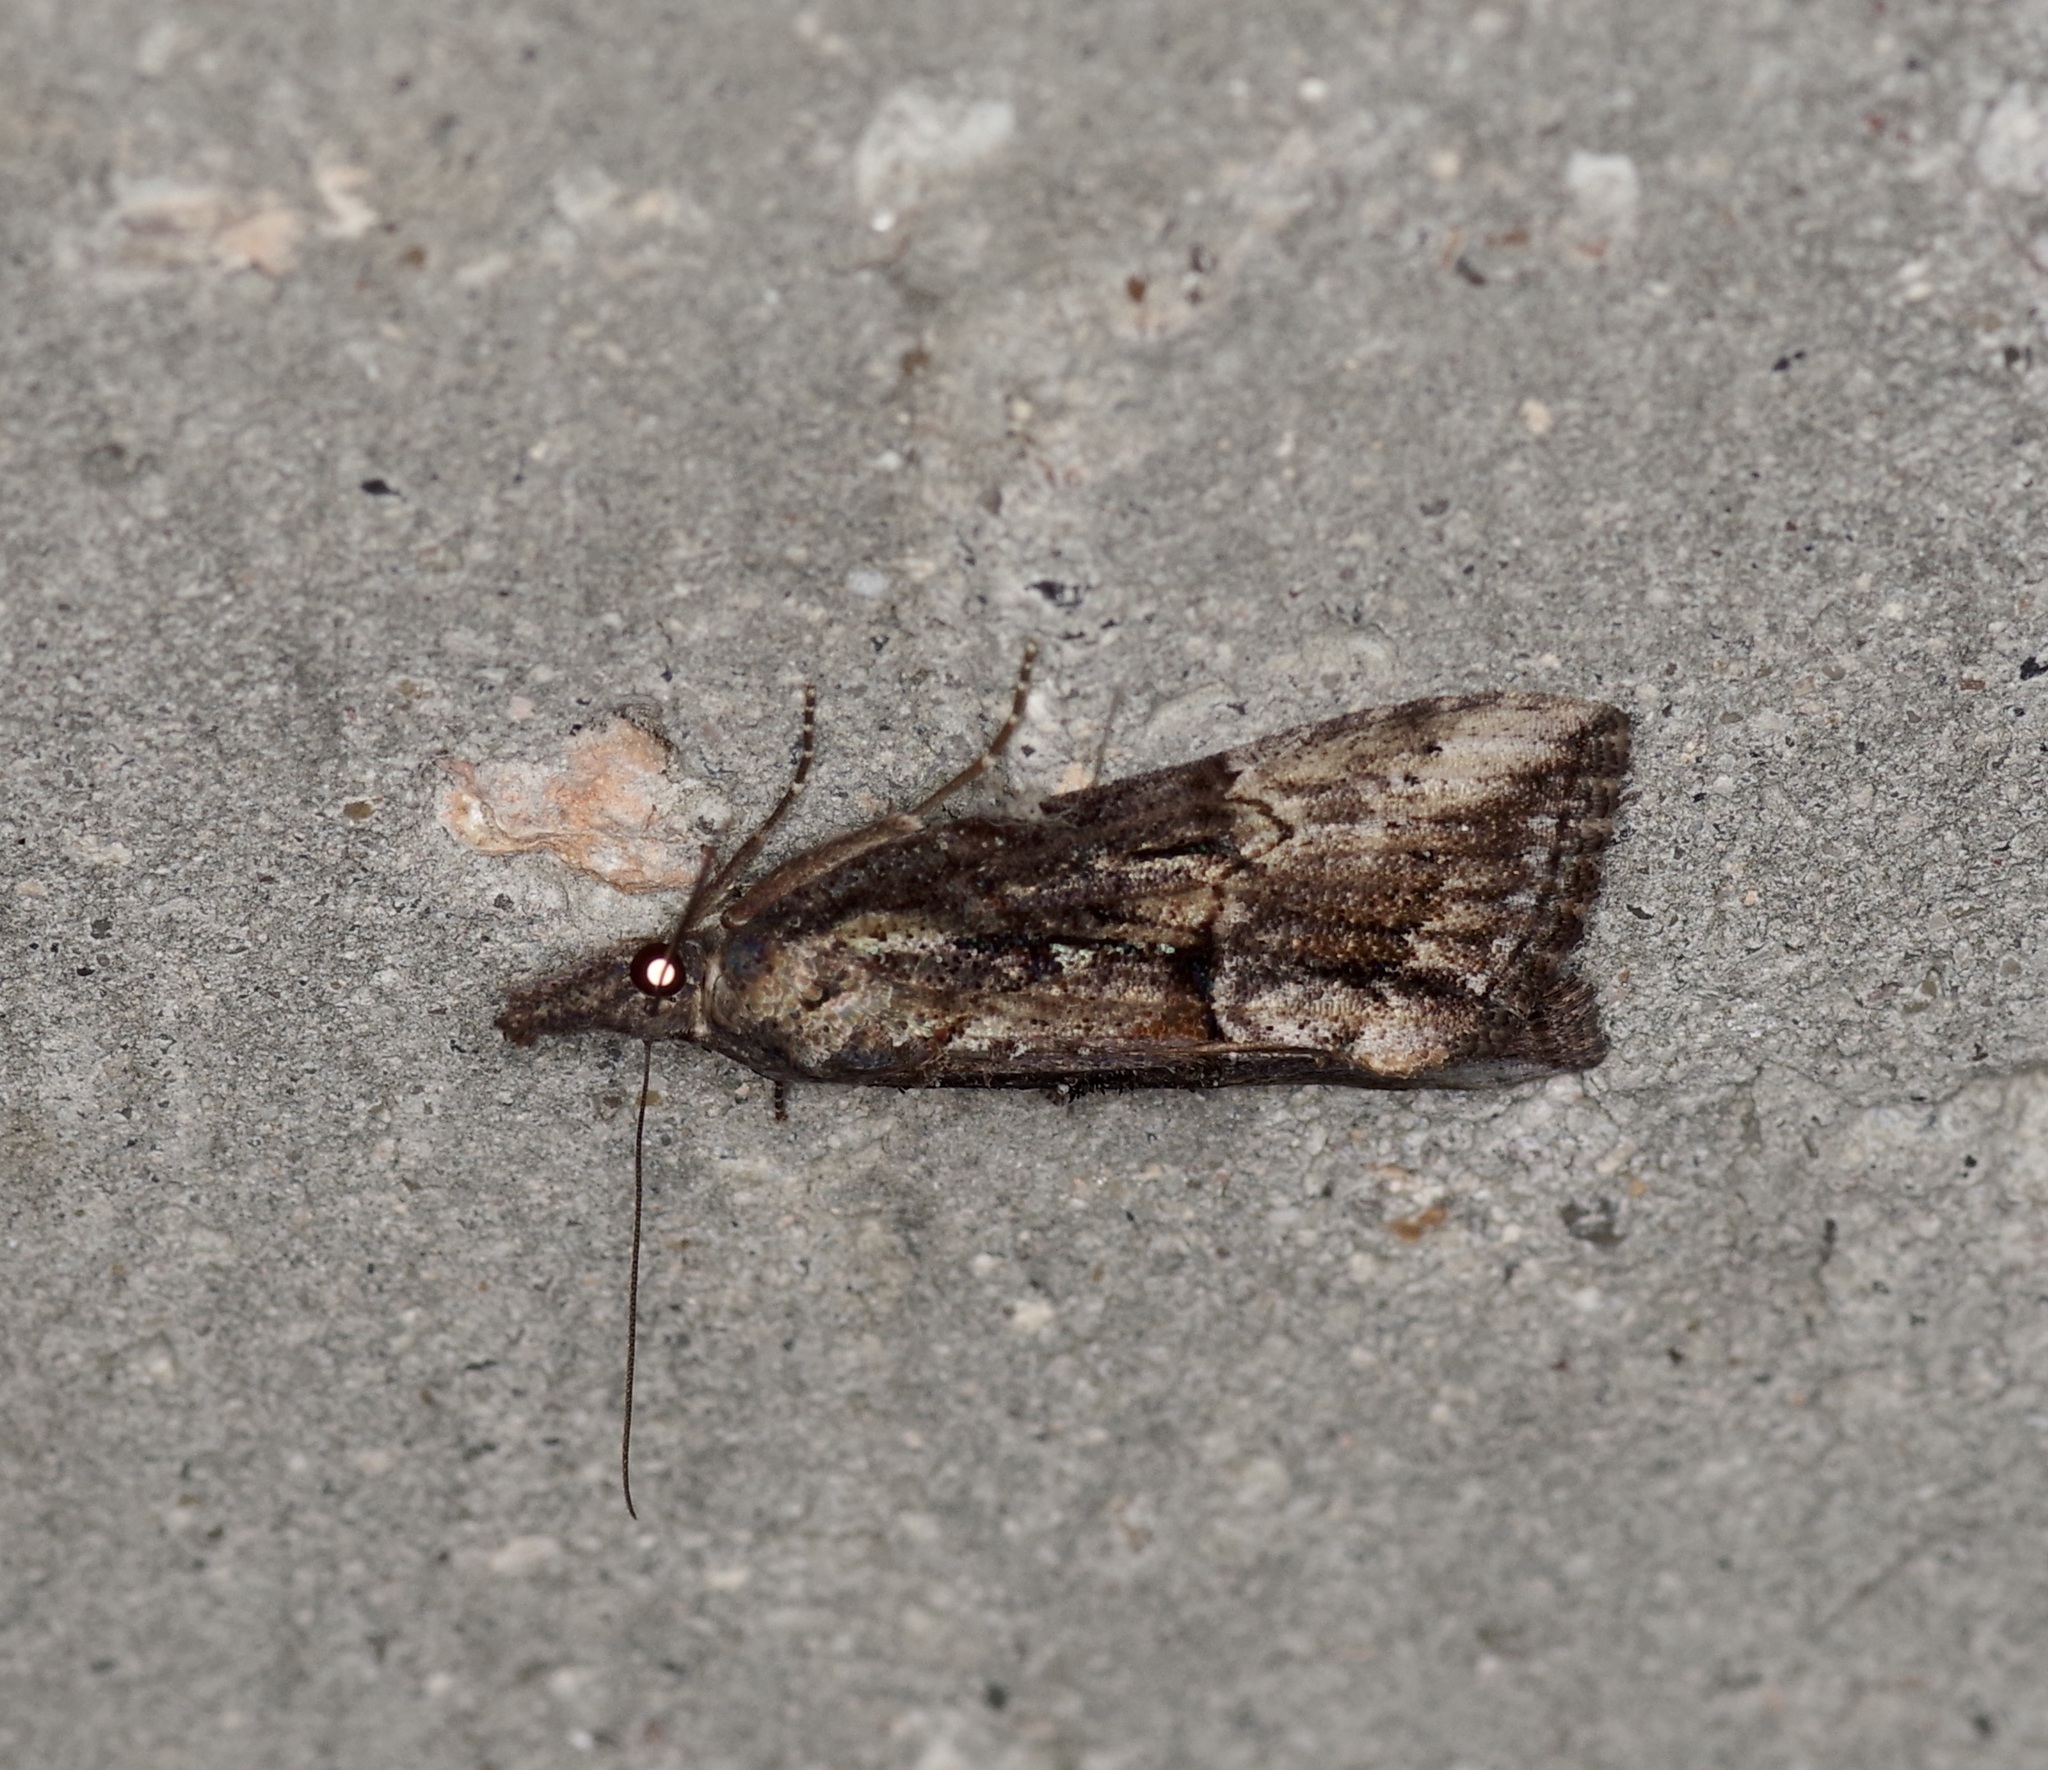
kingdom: Animalia
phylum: Arthropoda
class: Insecta
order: Lepidoptera
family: Erebidae
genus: Hypena
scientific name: Hypena scabra
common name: Green cloverworm
